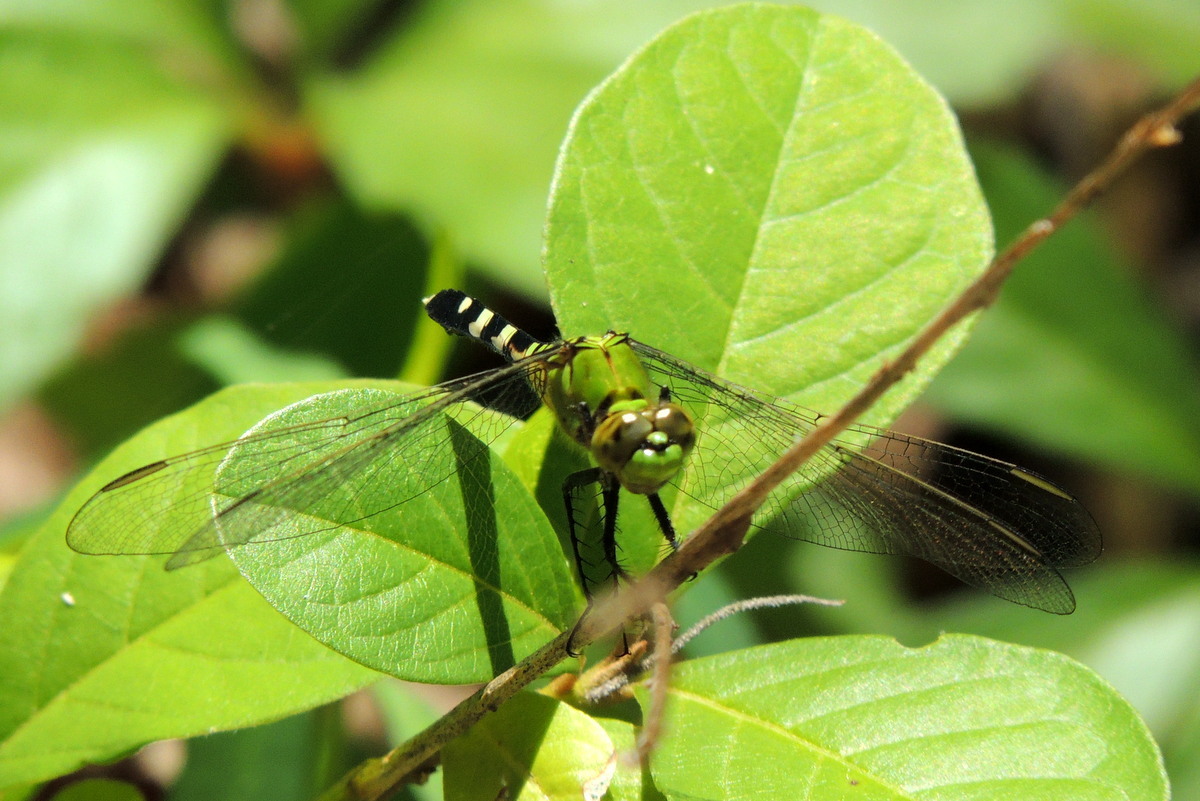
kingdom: Animalia
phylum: Arthropoda
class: Insecta
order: Odonata
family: Libellulidae
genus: Erythemis
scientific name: Erythemis simplicicollis
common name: Eastern pondhawk
